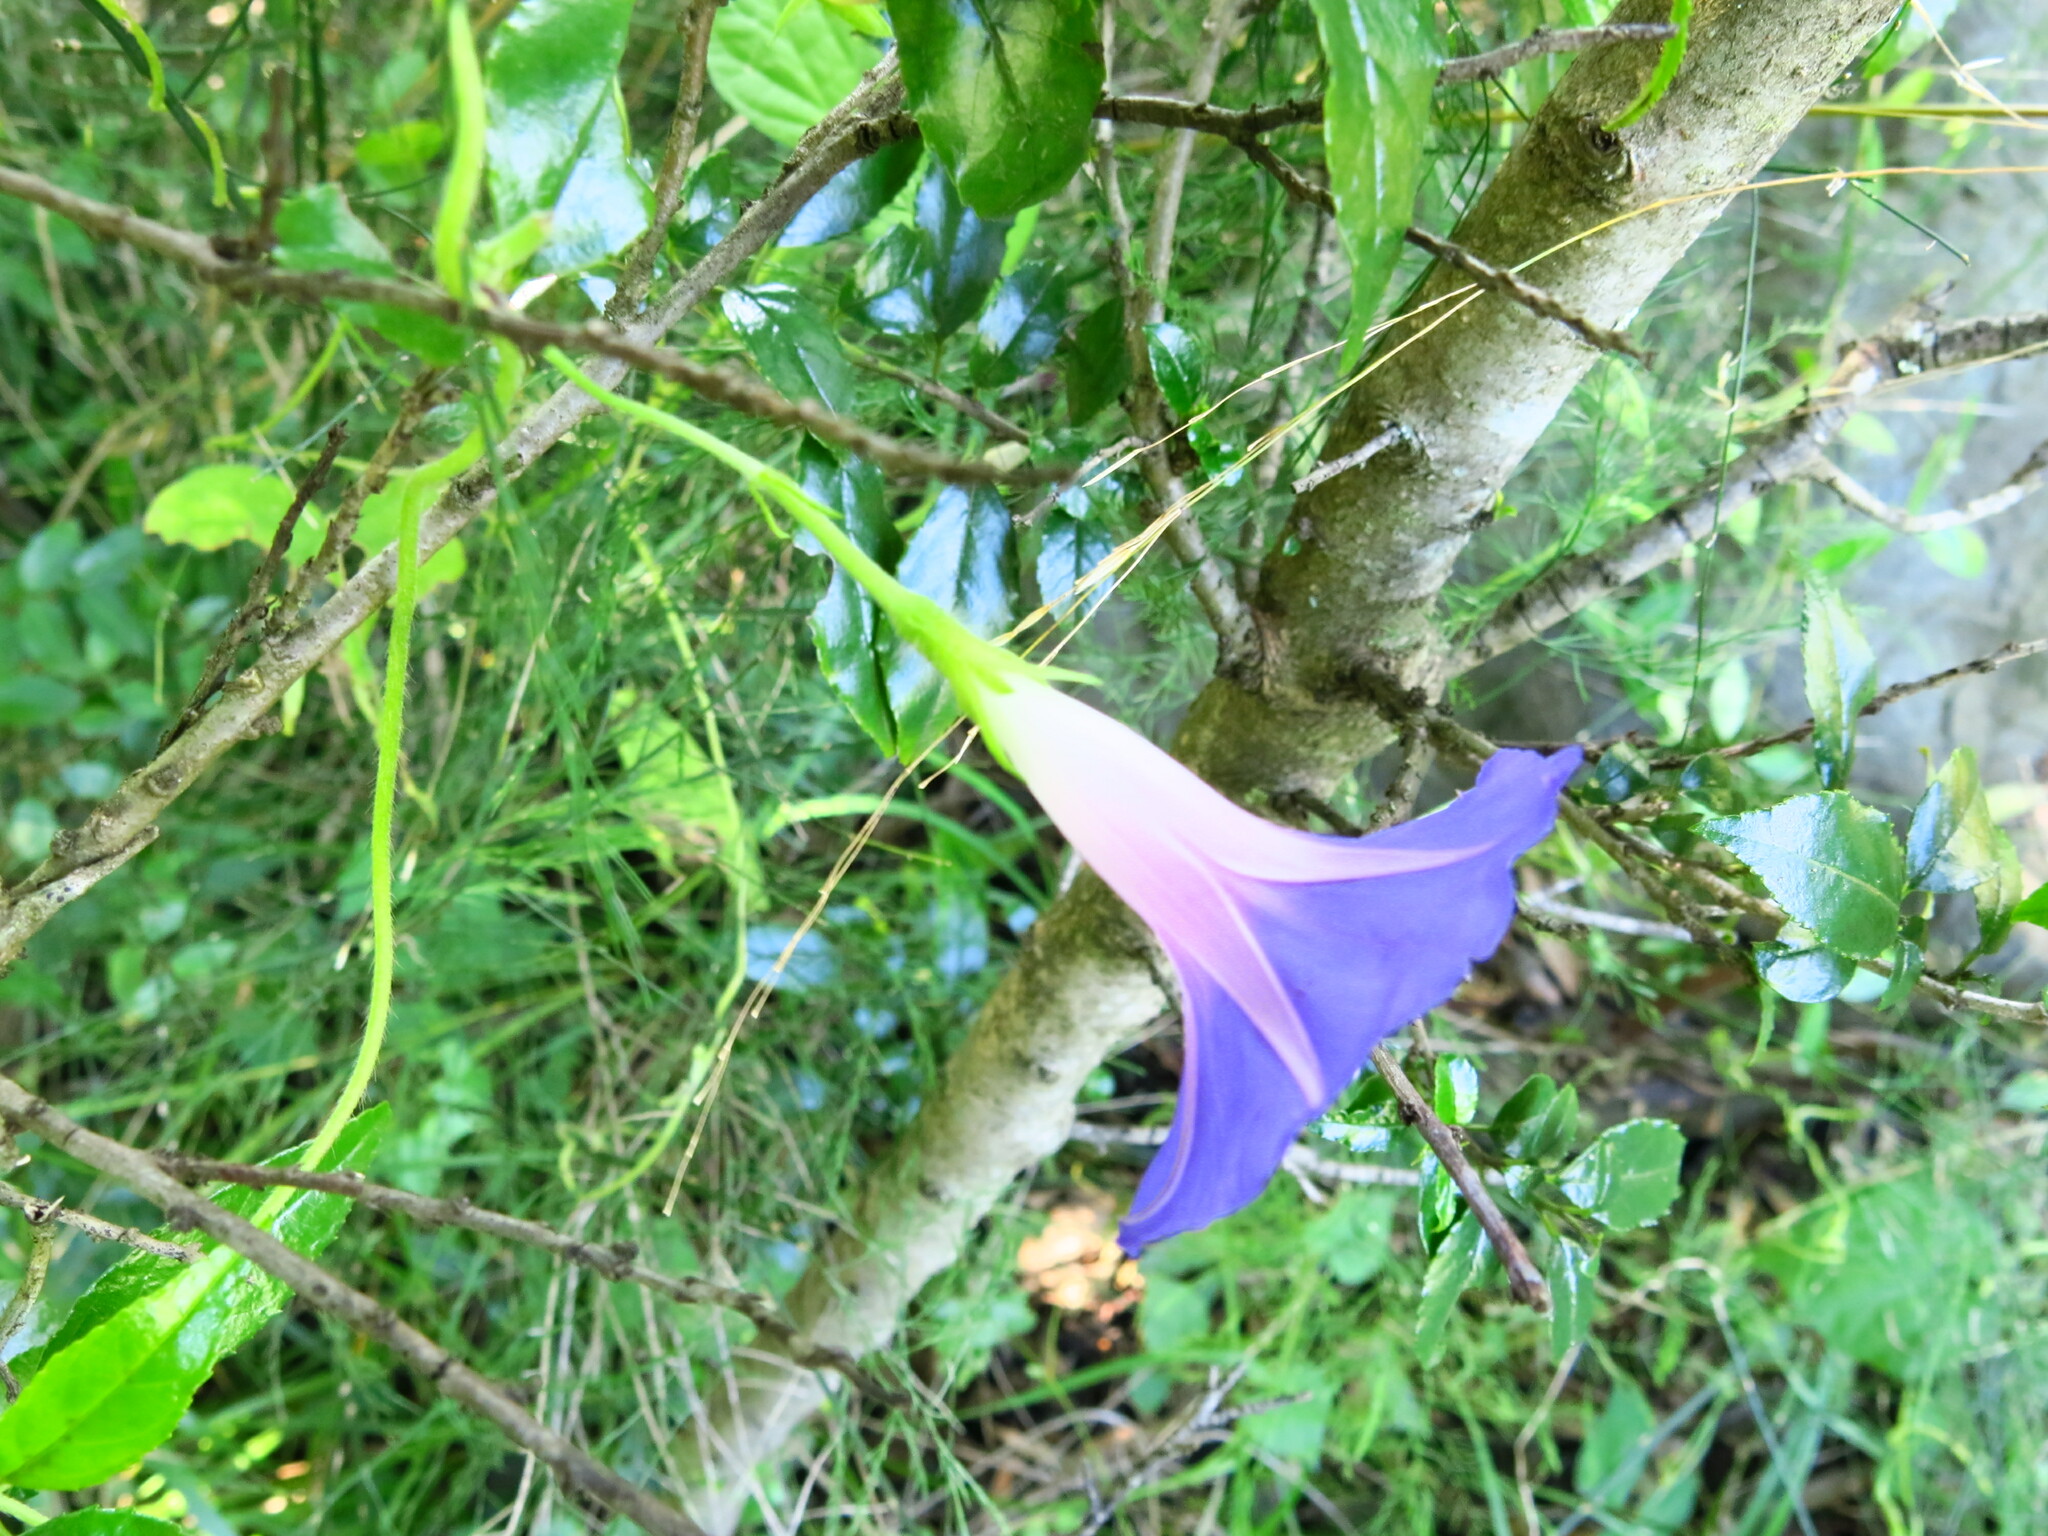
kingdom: Plantae
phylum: Tracheophyta
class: Magnoliopsida
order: Solanales
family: Convolvulaceae
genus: Ipomoea
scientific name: Ipomoea purpurea
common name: Common morning-glory
